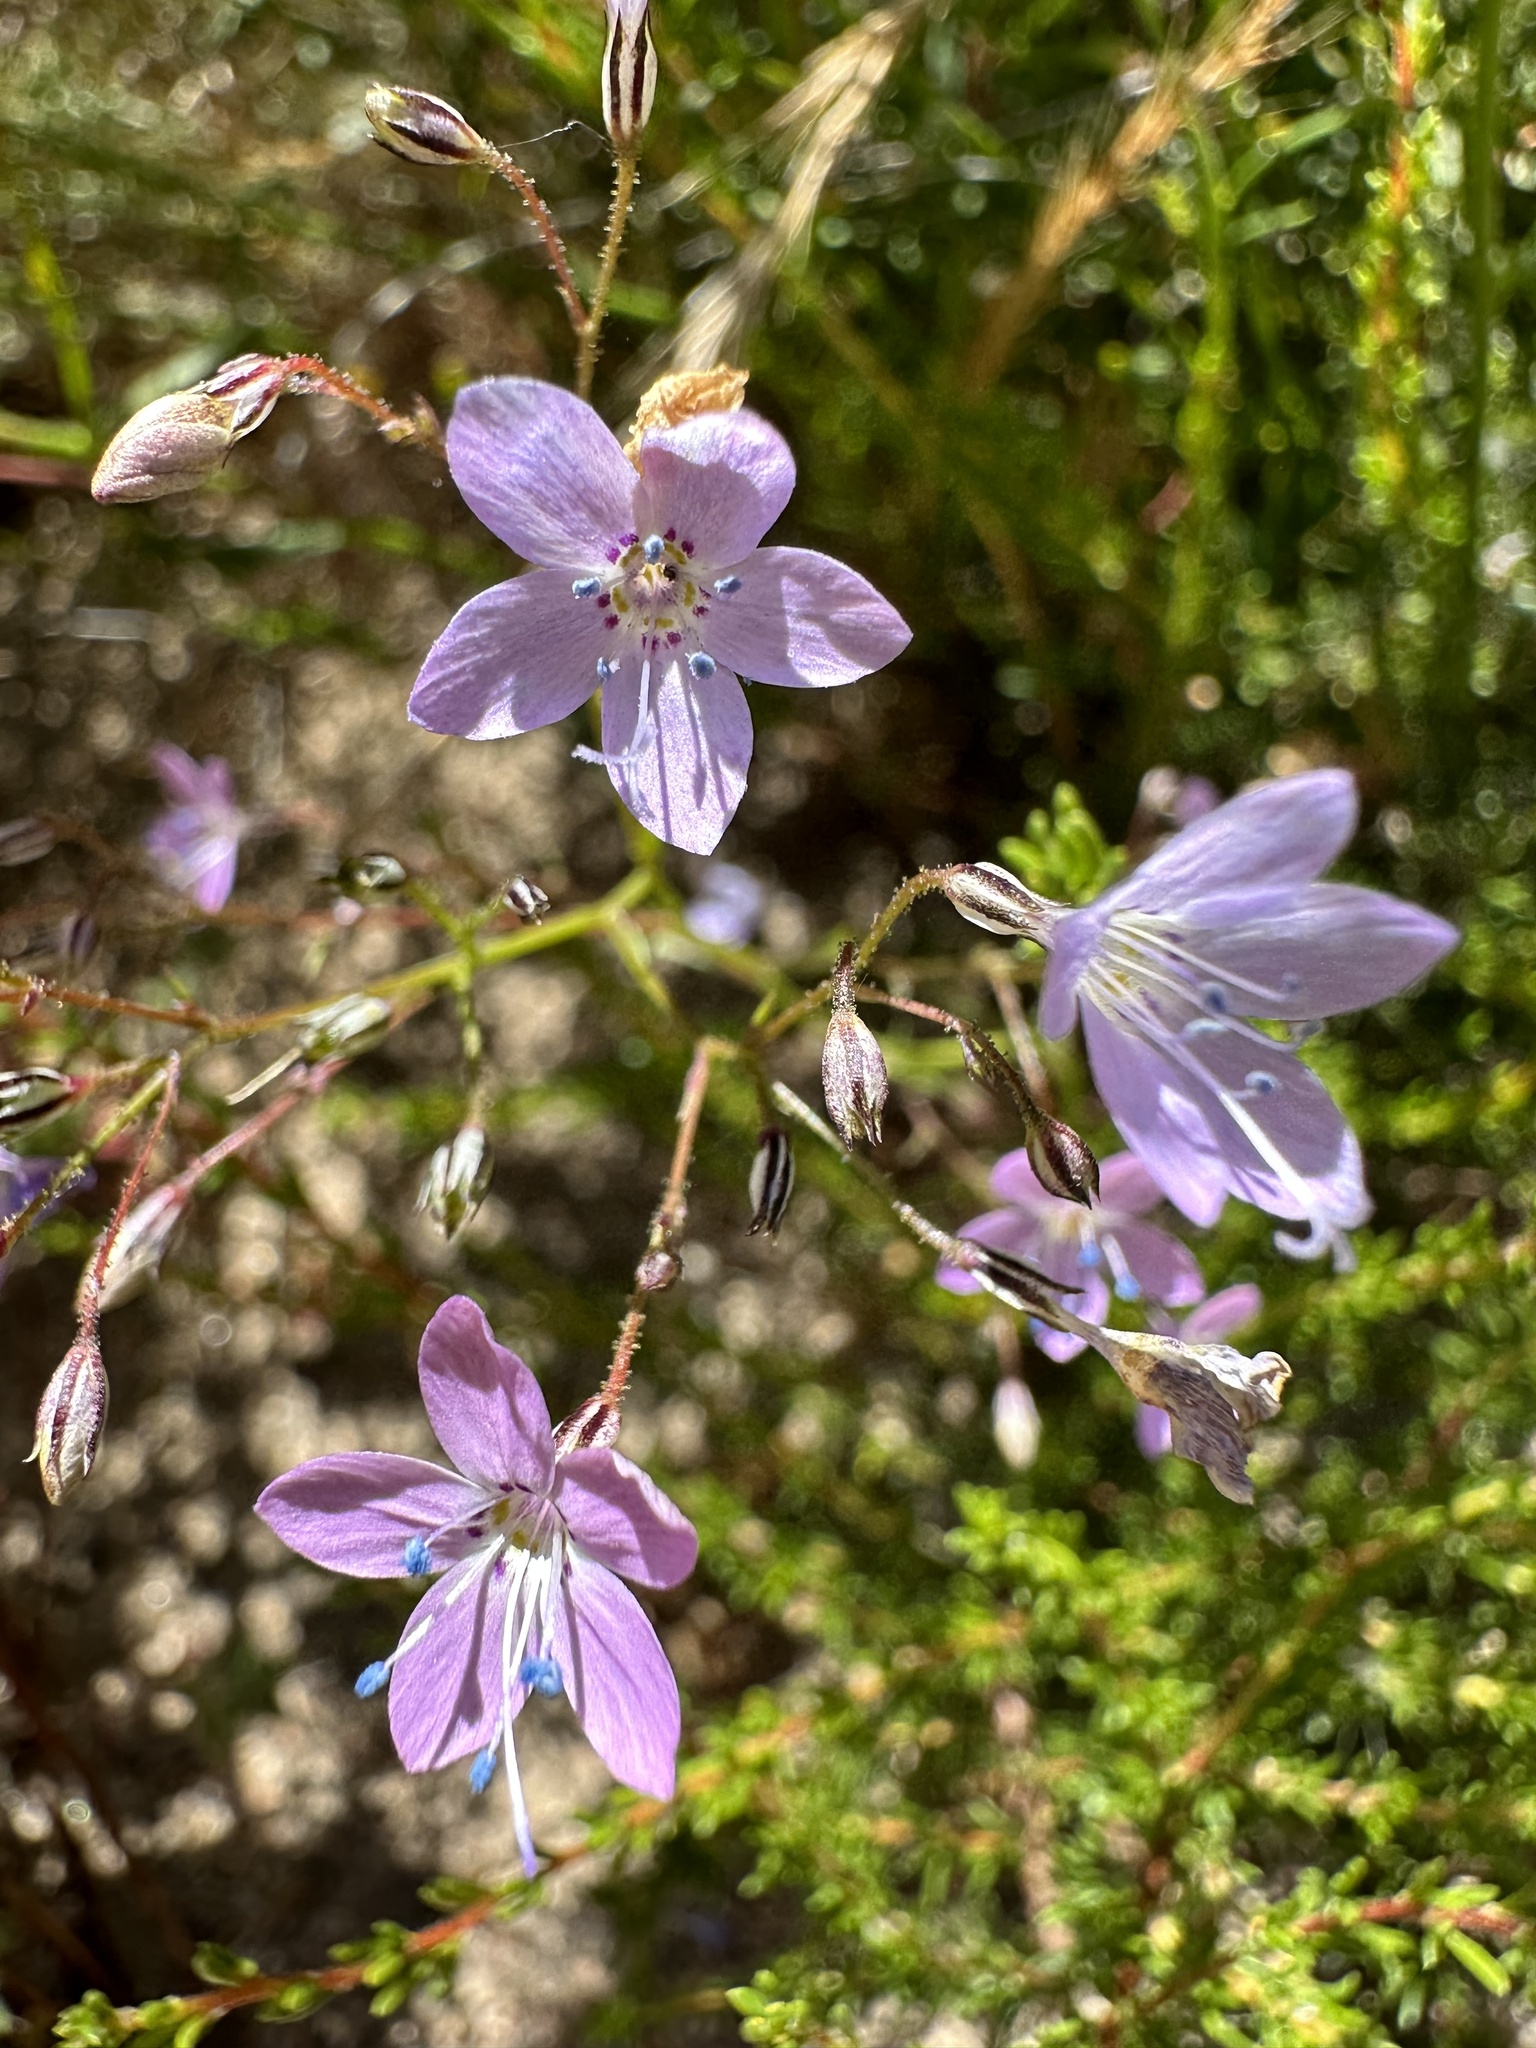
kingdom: Plantae
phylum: Tracheophyta
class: Magnoliopsida
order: Ericales
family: Polemoniaceae
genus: Saltugilia
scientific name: Saltugilia caruifolia
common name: Carawayleaf gilia
